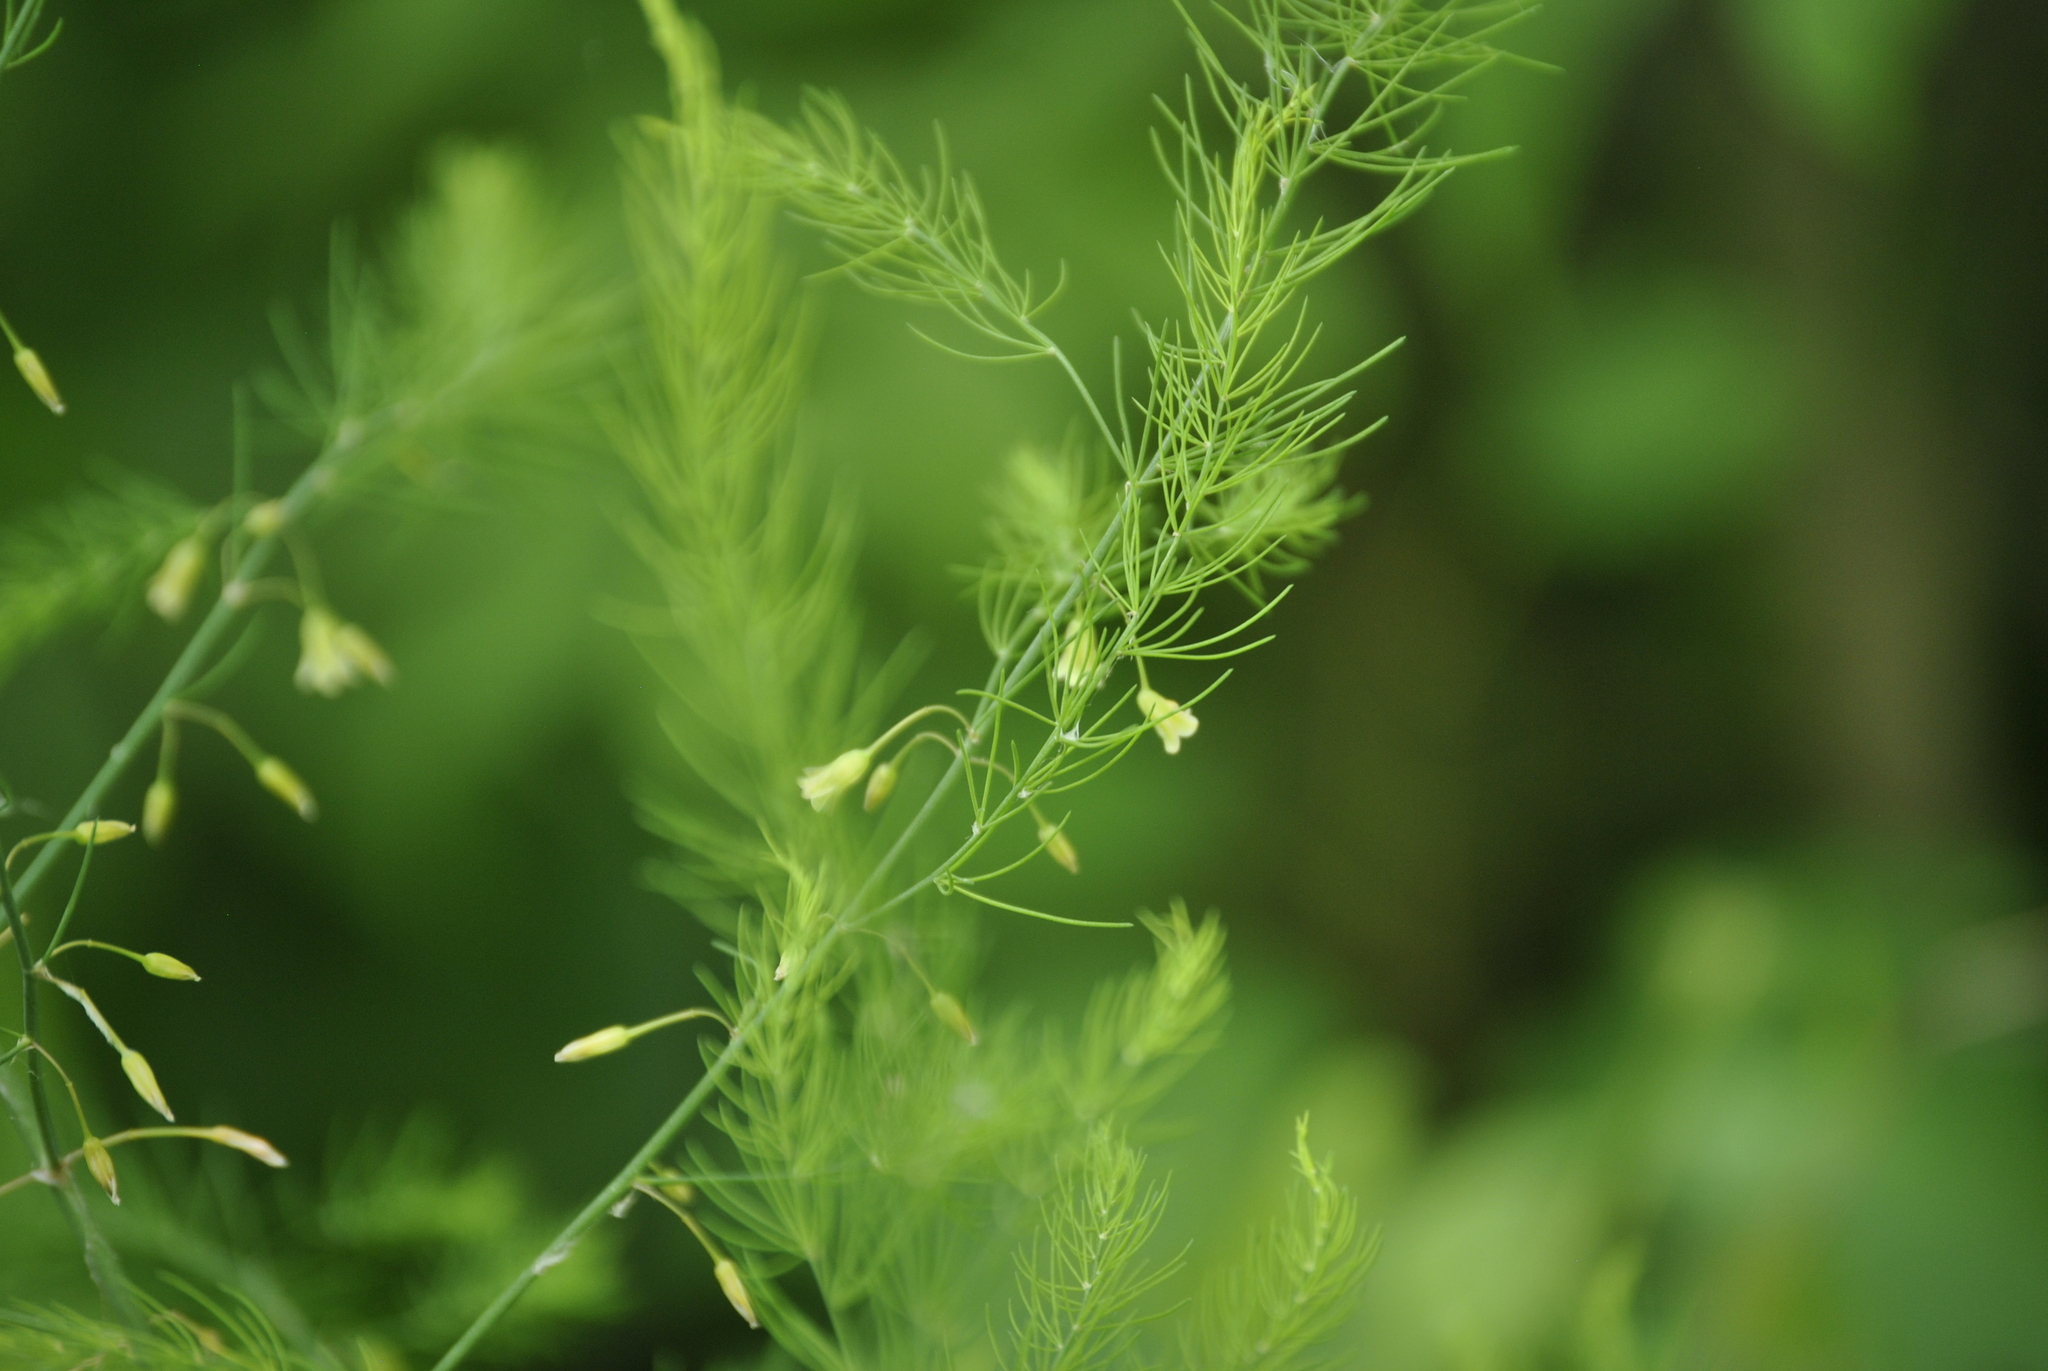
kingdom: Plantae
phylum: Tracheophyta
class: Liliopsida
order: Asparagales
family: Asparagaceae
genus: Asparagus
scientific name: Asparagus officinalis
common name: Garden asparagus
